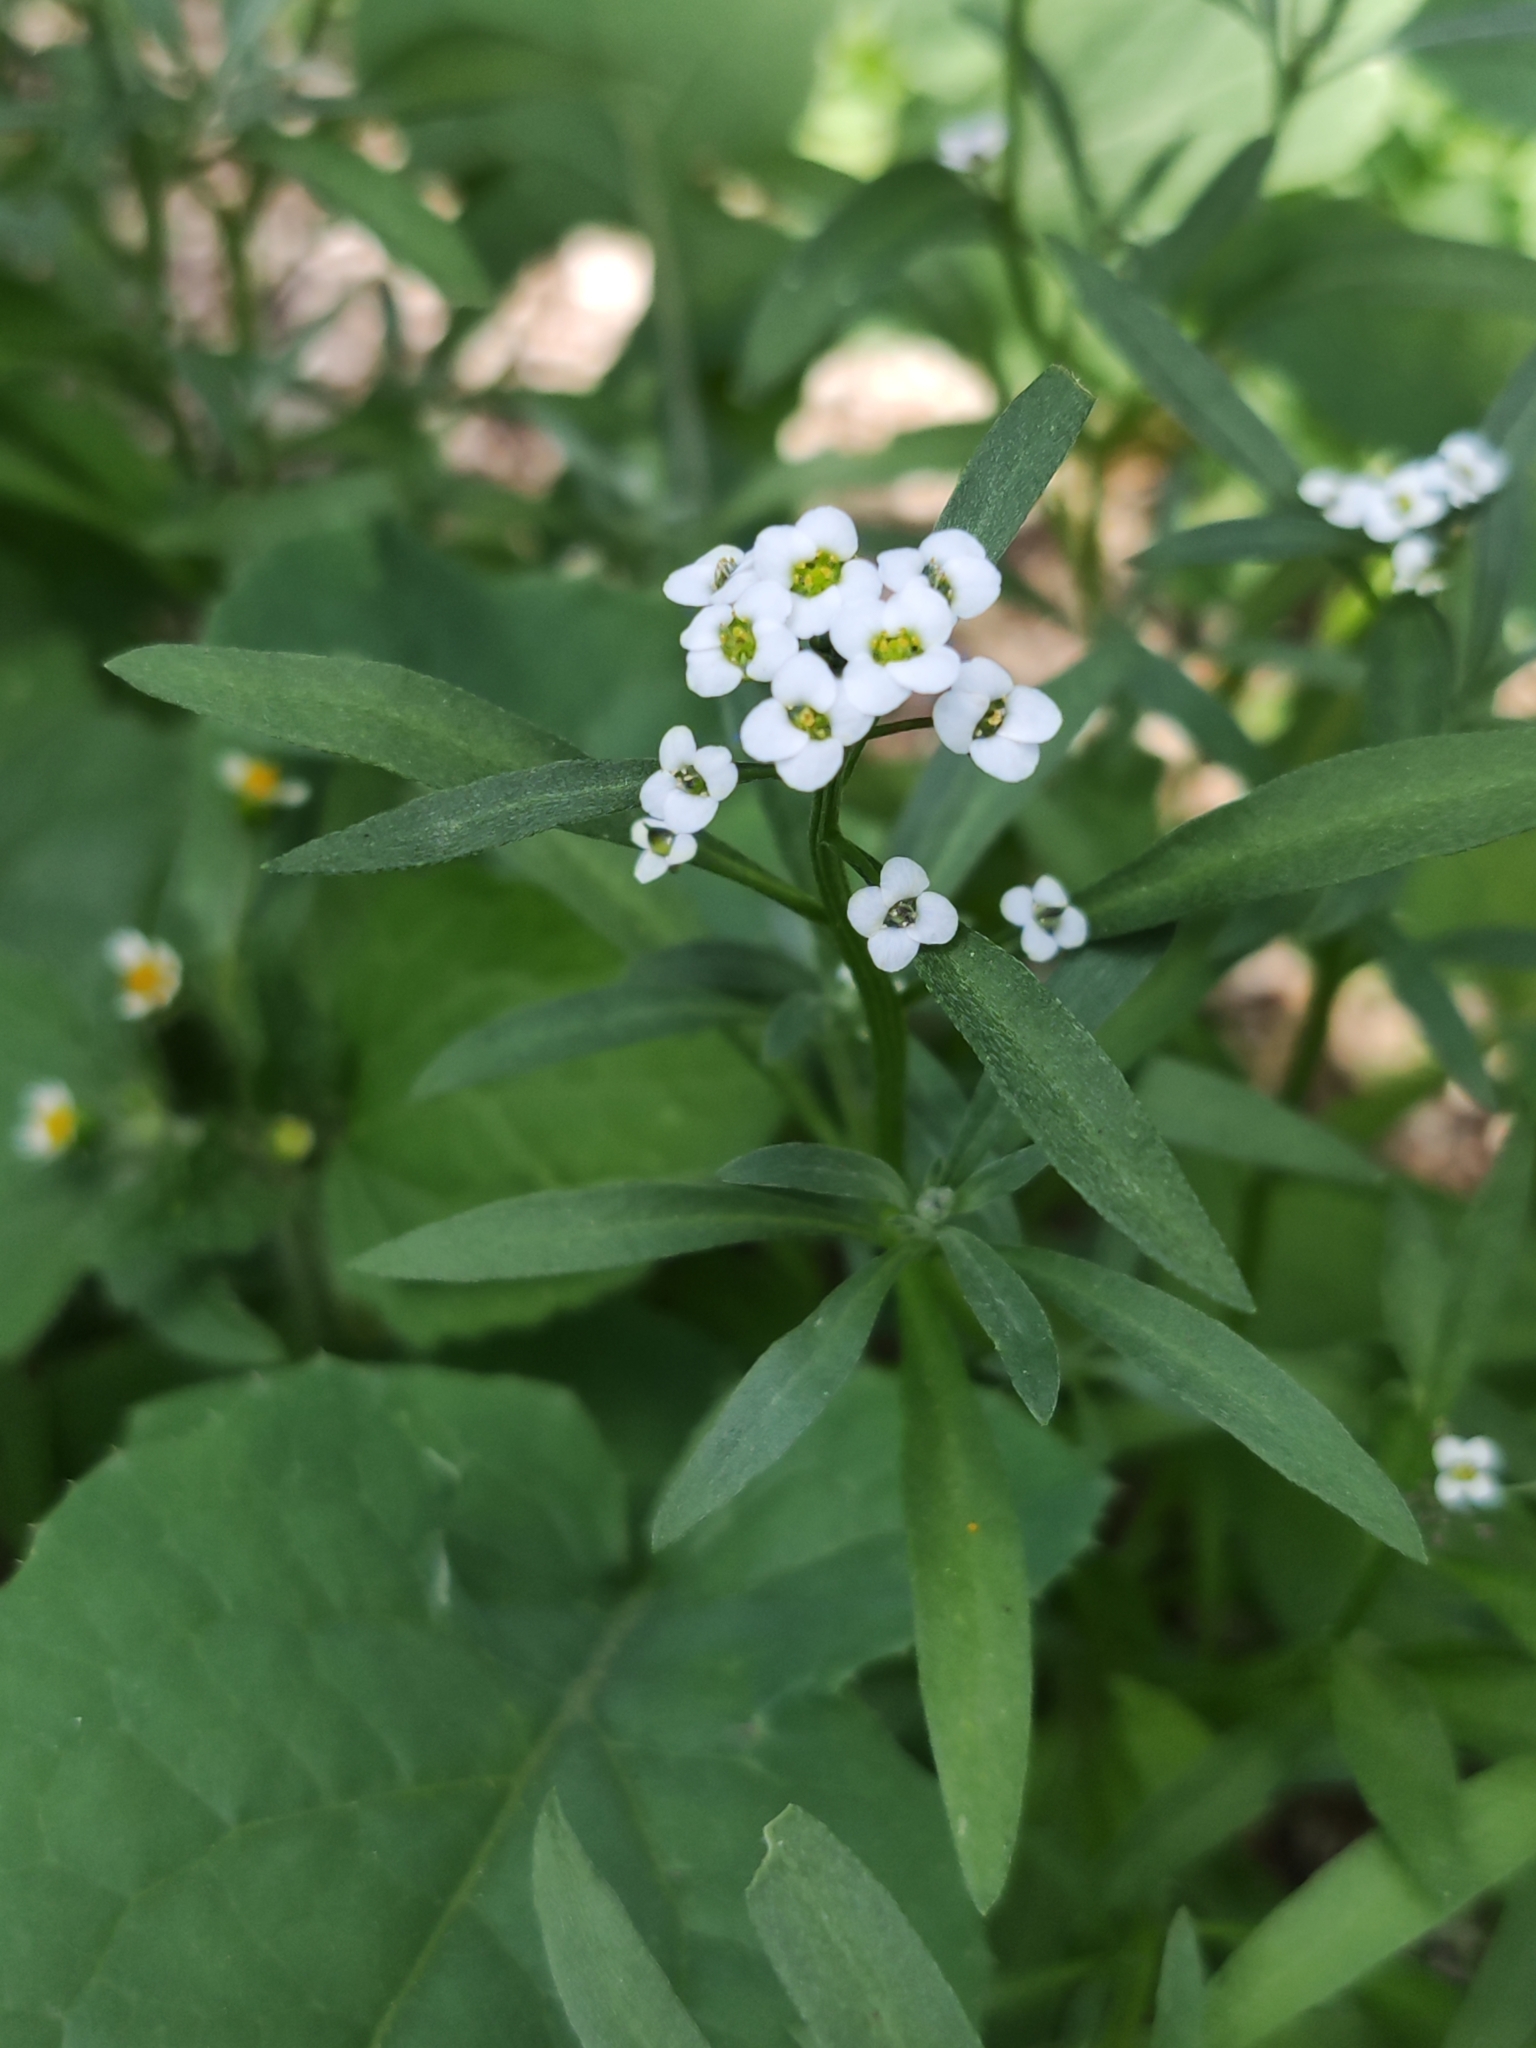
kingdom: Plantae
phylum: Tracheophyta
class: Magnoliopsida
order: Brassicales
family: Brassicaceae
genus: Lobularia
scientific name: Lobularia maritima
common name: Sweet alison
